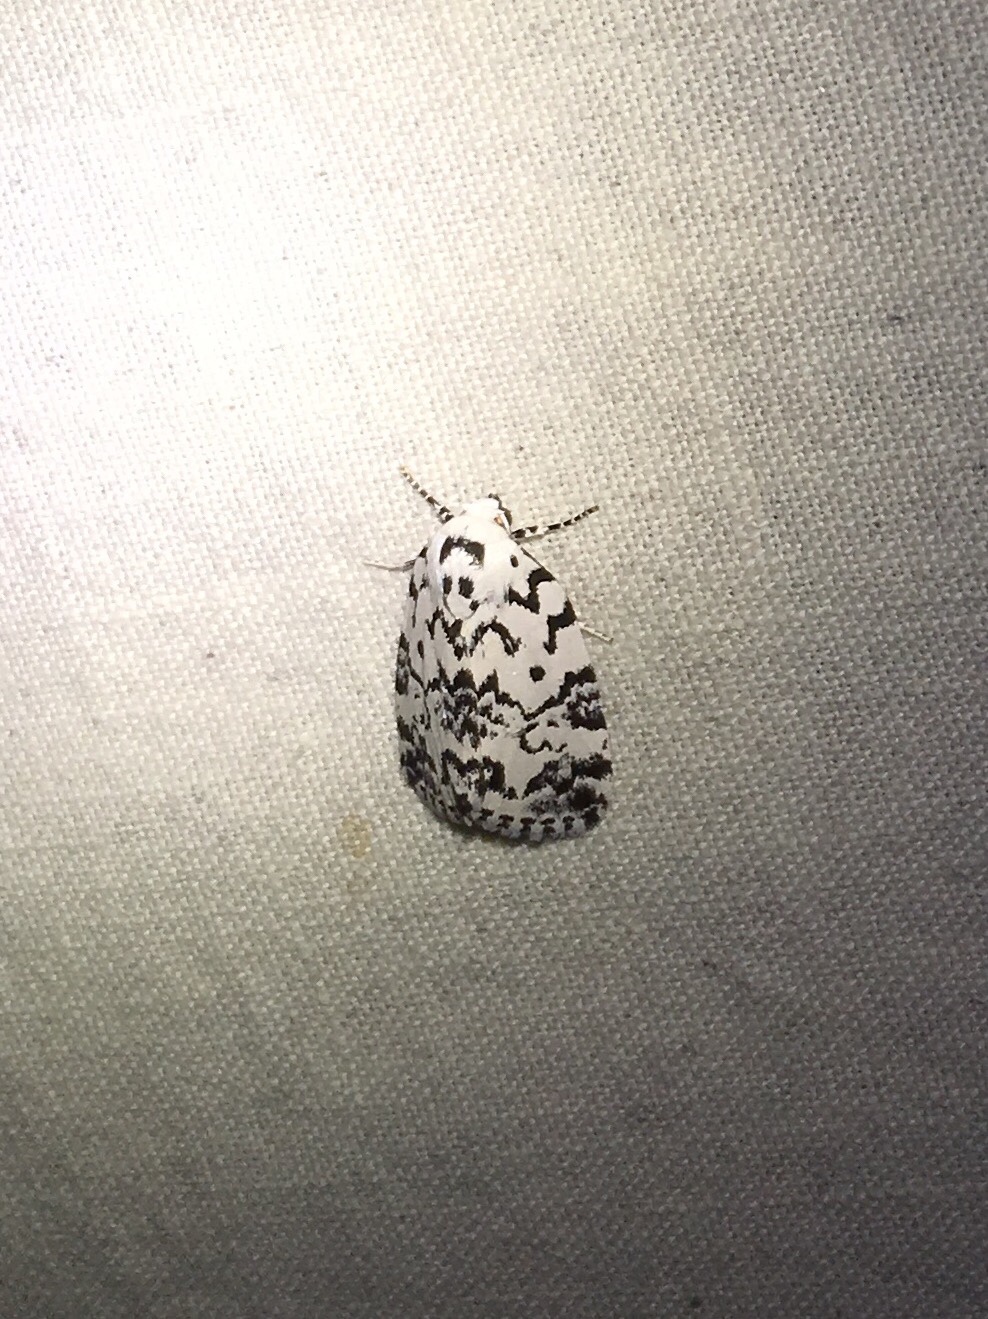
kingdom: Animalia
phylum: Arthropoda
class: Insecta
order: Lepidoptera
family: Noctuidae
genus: Polygrammate
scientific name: Polygrammate hebraeicum
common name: Hebrew moth
